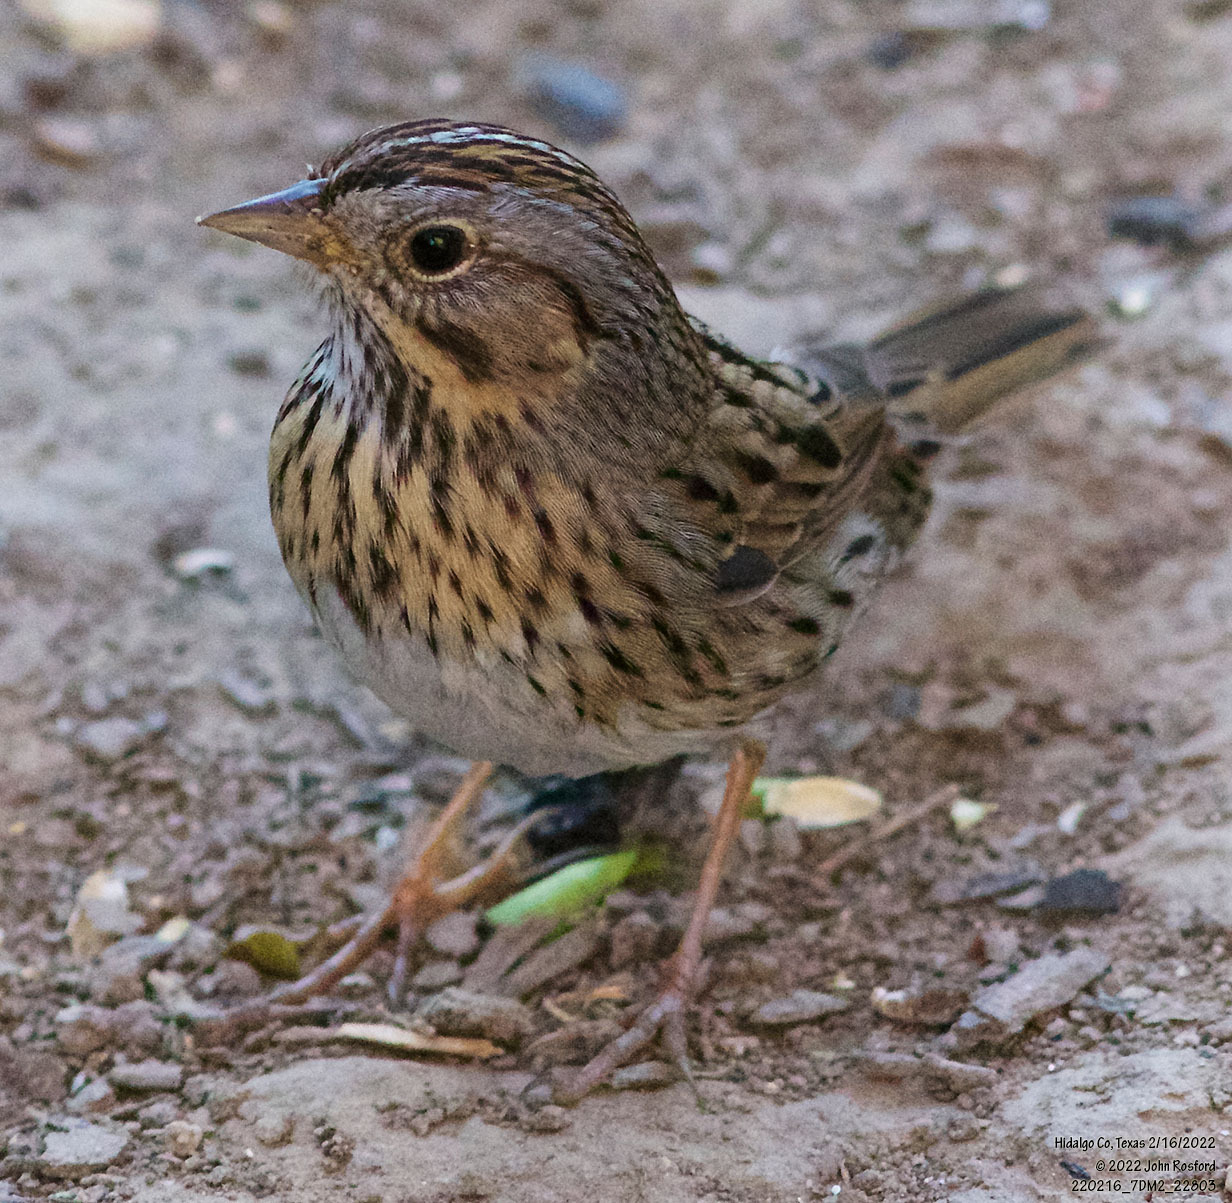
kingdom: Animalia
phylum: Chordata
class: Aves
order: Passeriformes
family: Passerellidae
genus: Melospiza
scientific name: Melospiza lincolnii
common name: Lincoln's sparrow
